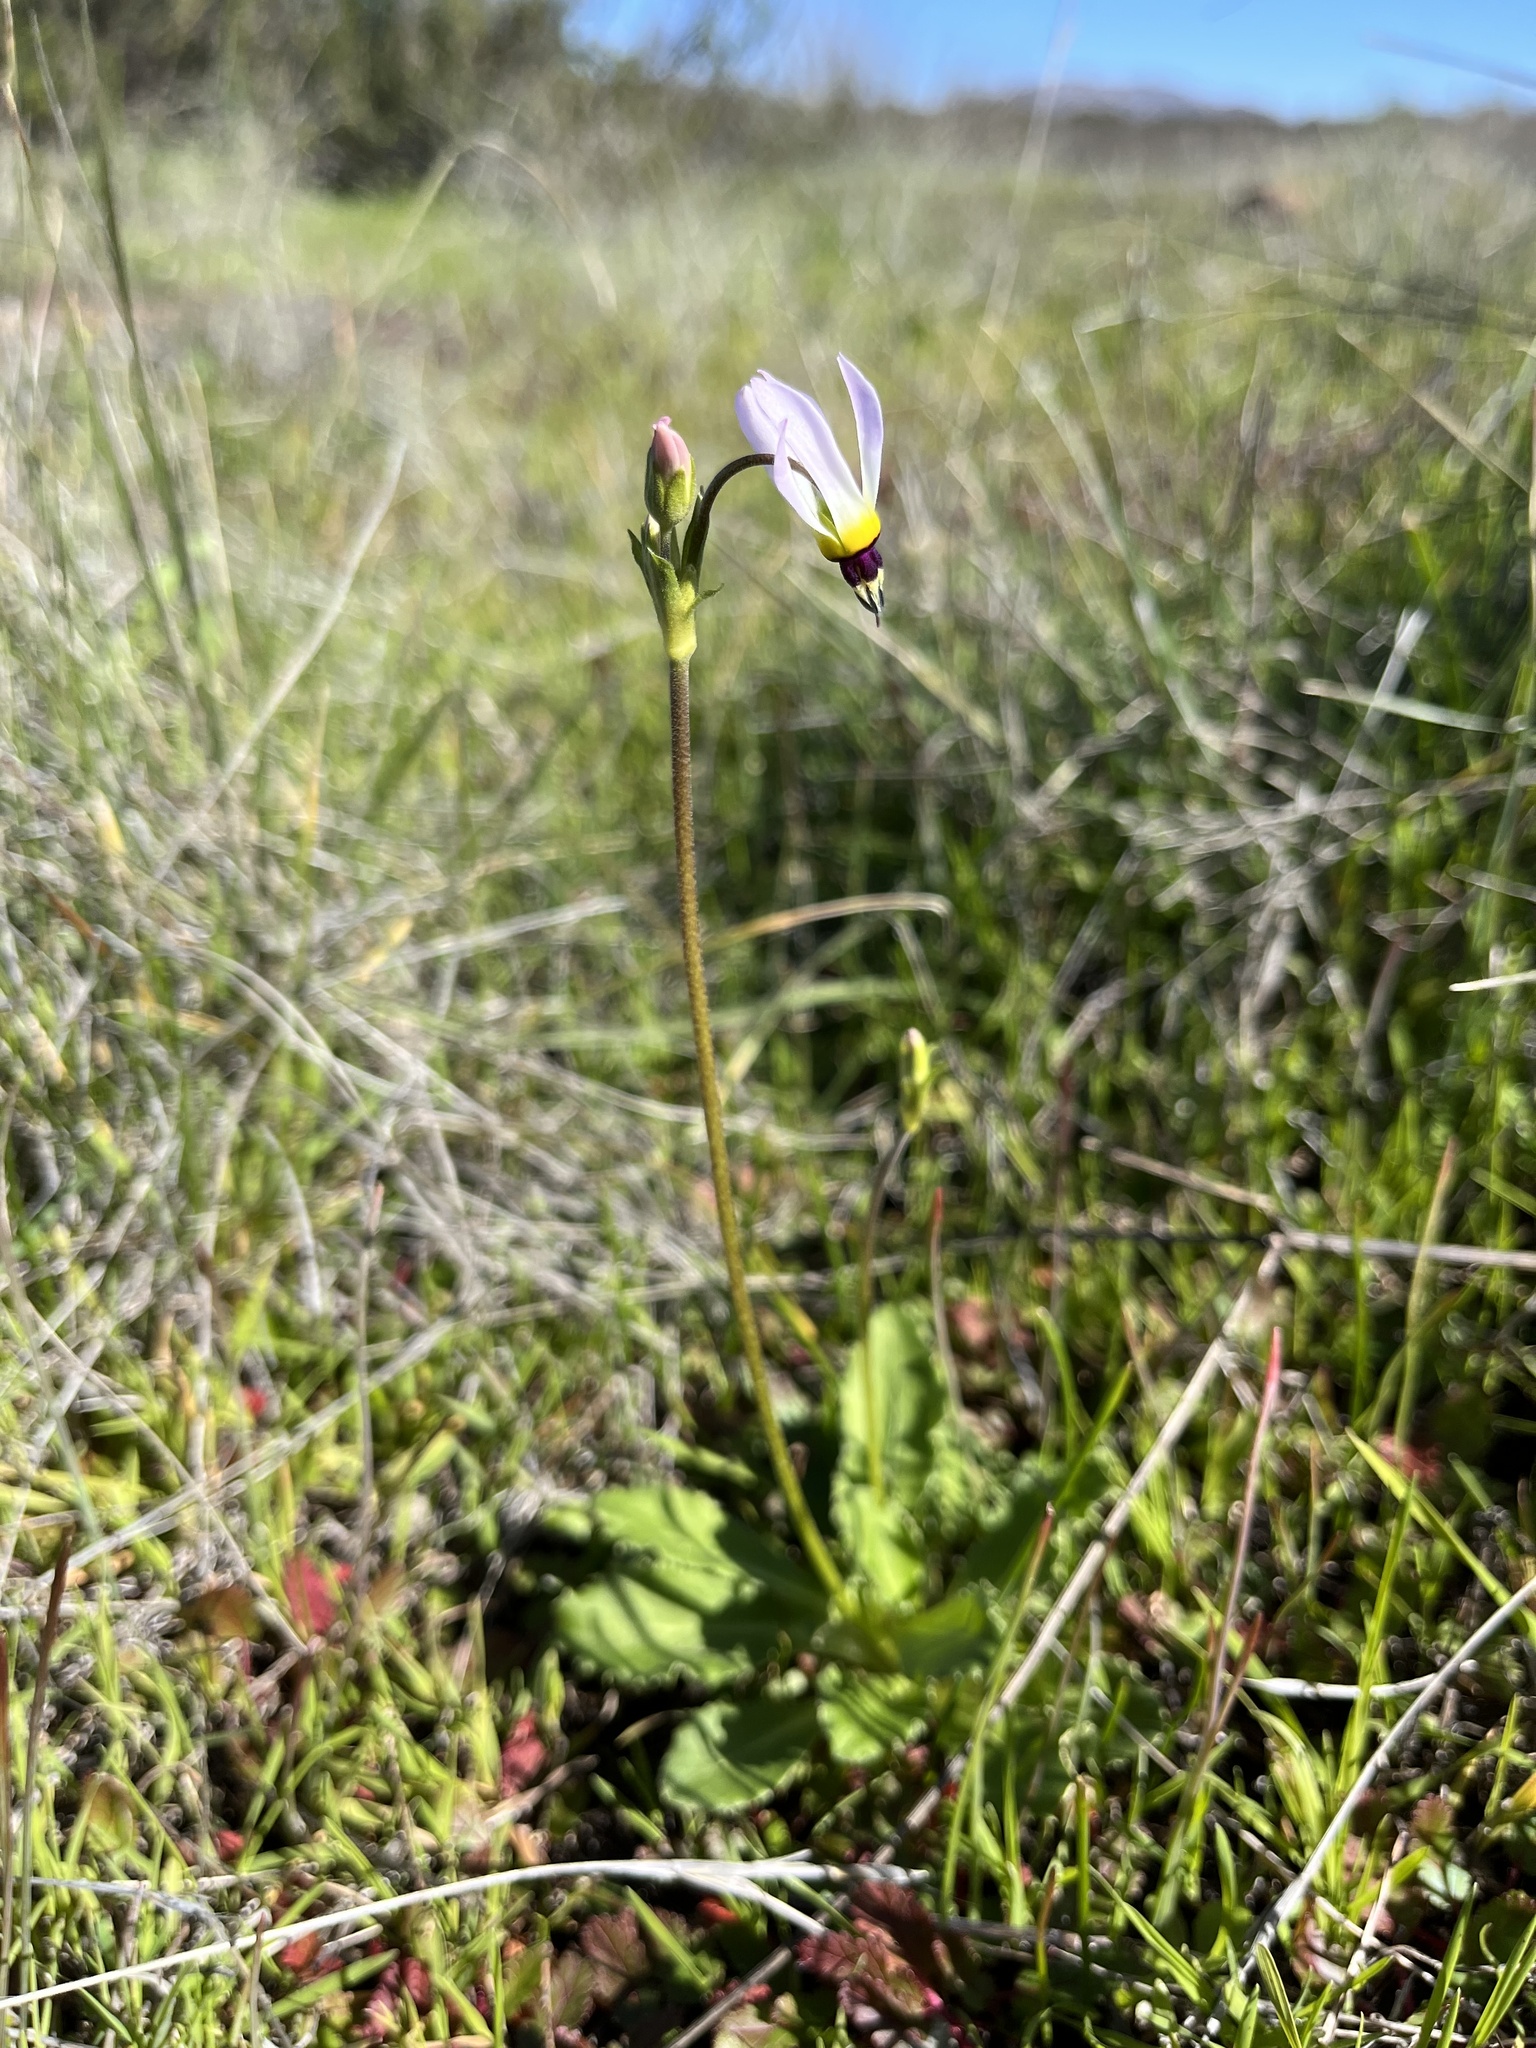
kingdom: Plantae
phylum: Tracheophyta
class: Magnoliopsida
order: Ericales
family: Primulaceae
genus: Dodecatheon
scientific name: Dodecatheon clevelandii
